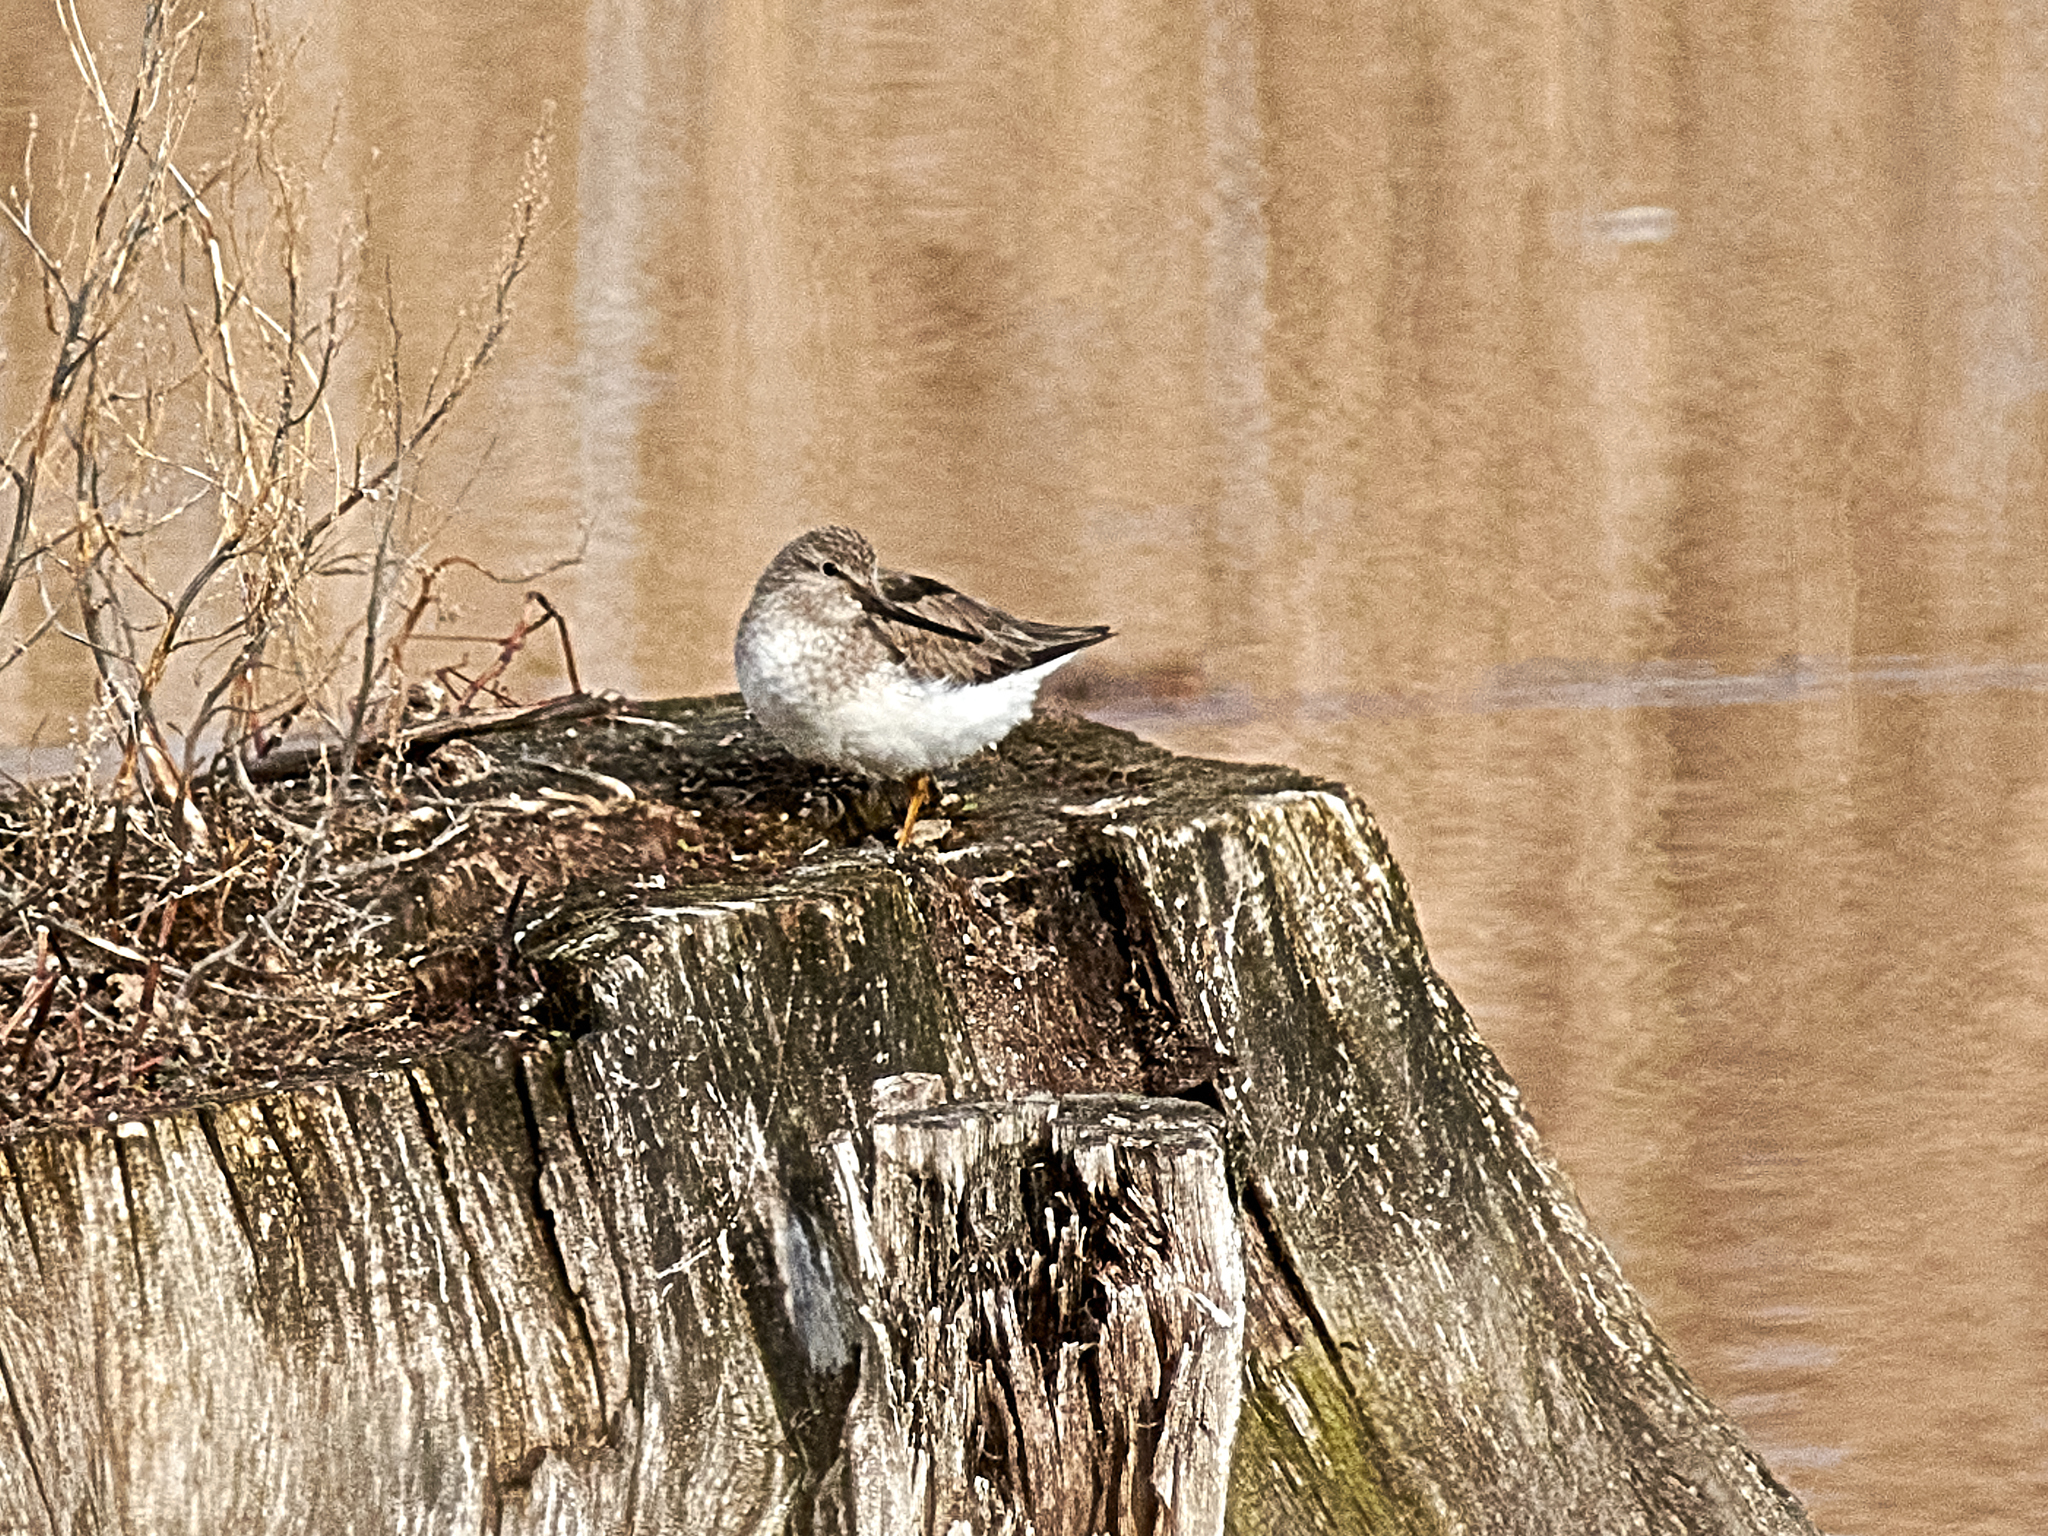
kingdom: Animalia
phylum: Chordata
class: Aves
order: Charadriiformes
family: Scolopacidae
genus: Xenus
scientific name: Xenus cinereus
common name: Terek sandpiper
